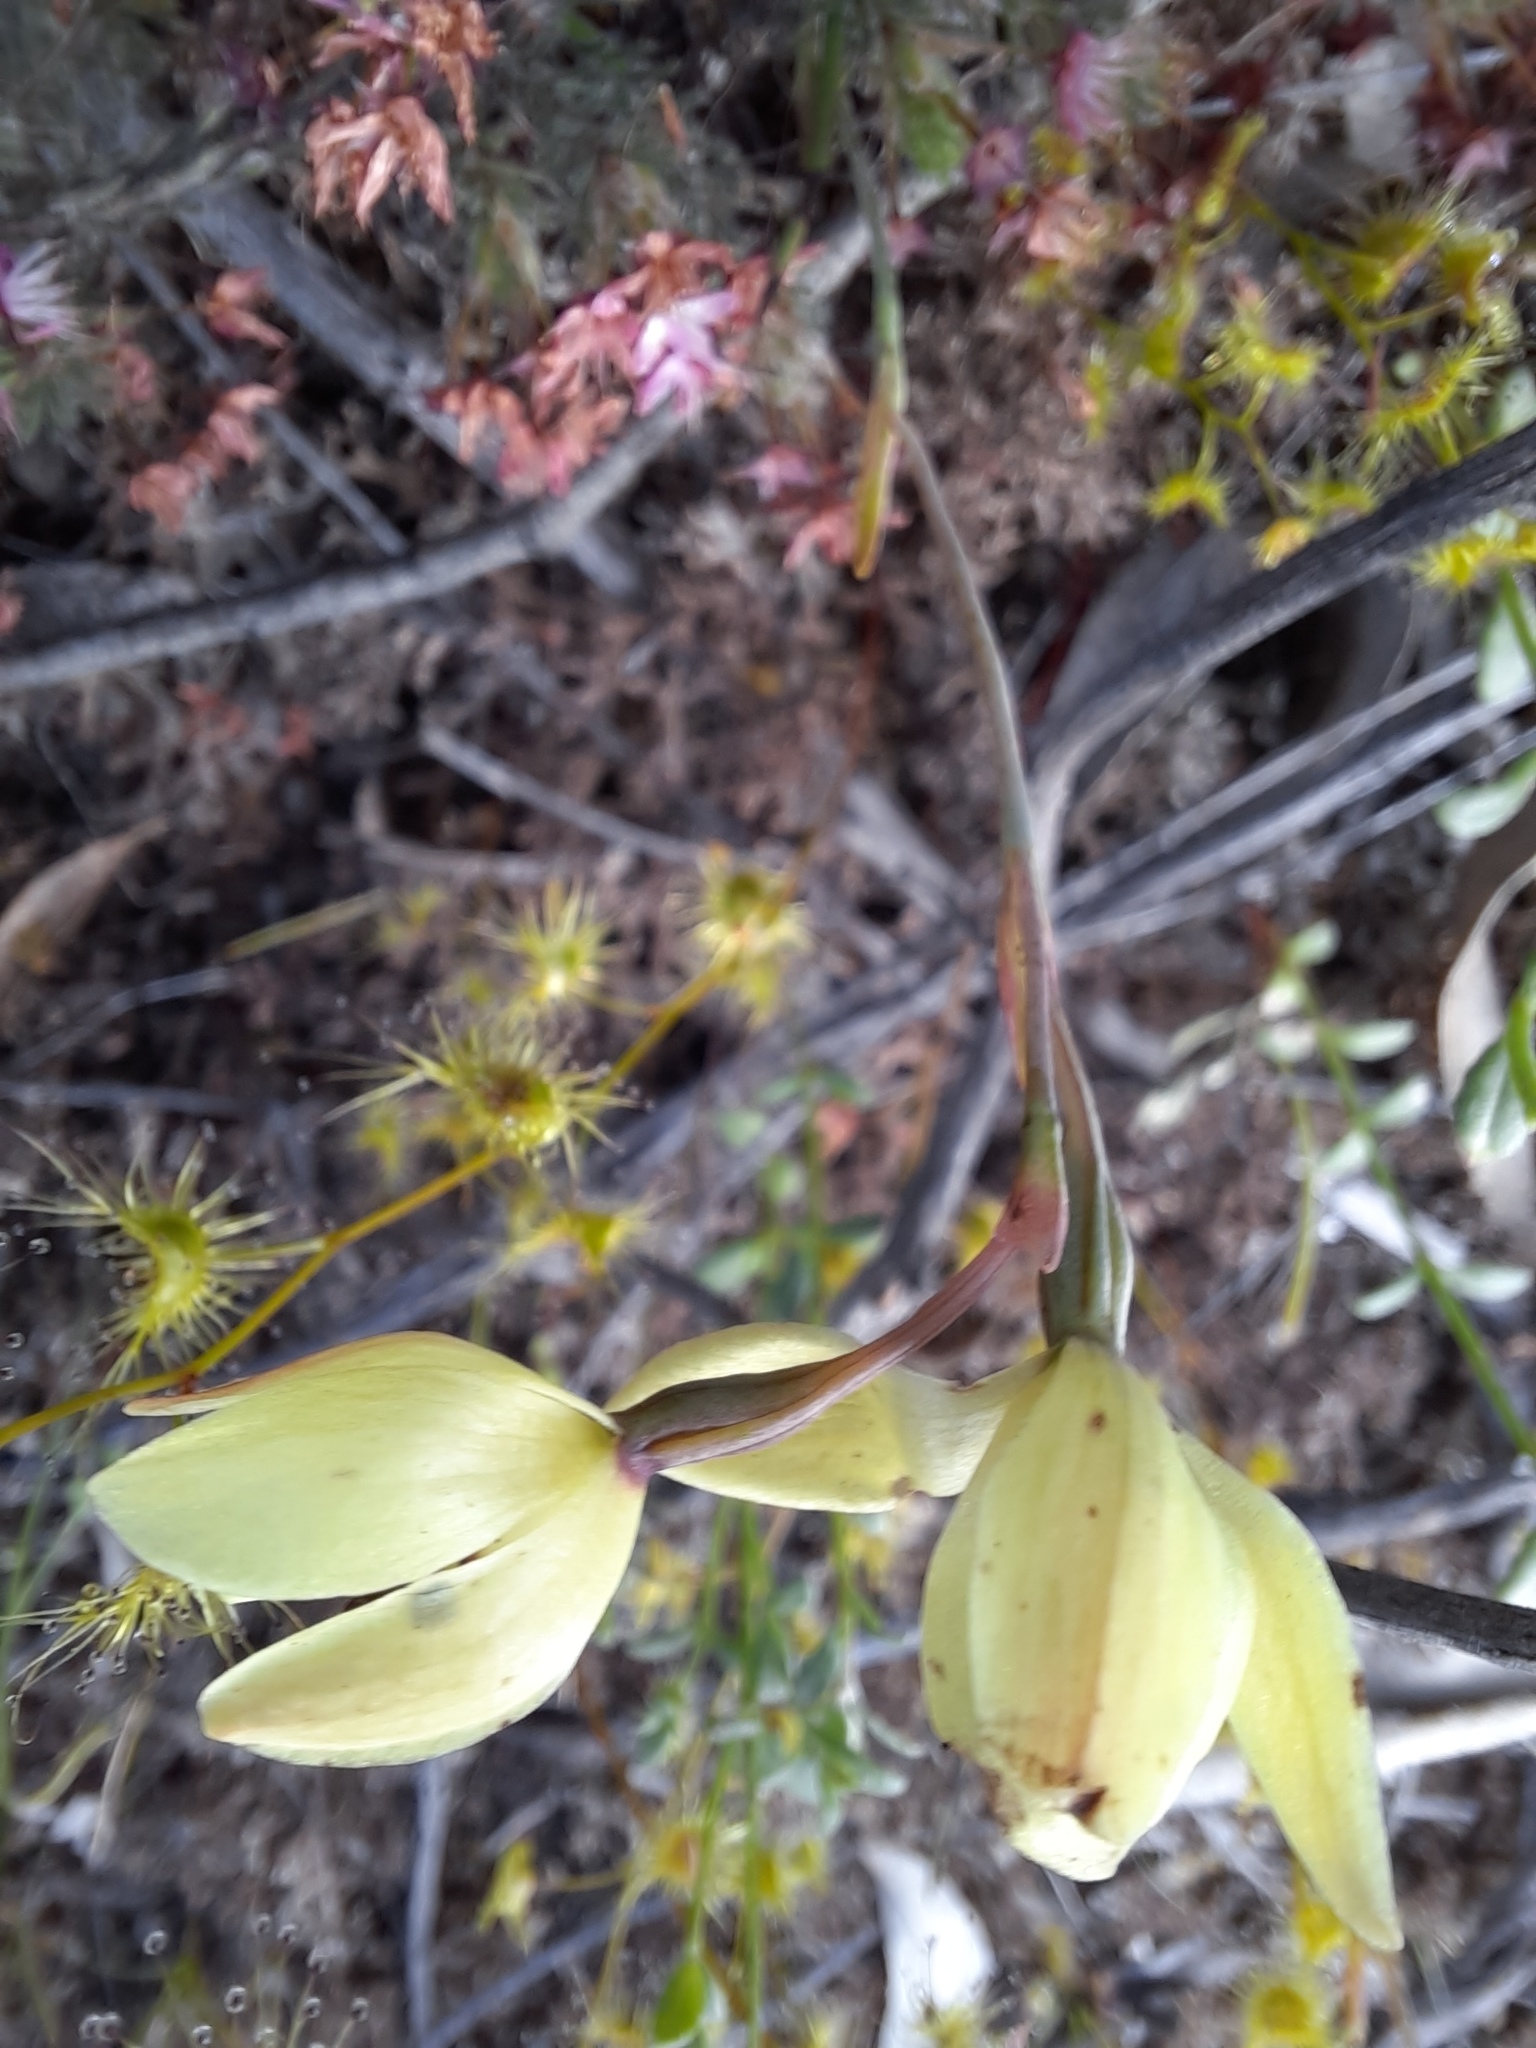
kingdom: Plantae
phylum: Tracheophyta
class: Liliopsida
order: Asparagales
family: Orchidaceae
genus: Thelymitra
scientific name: Thelymitra antennifera
